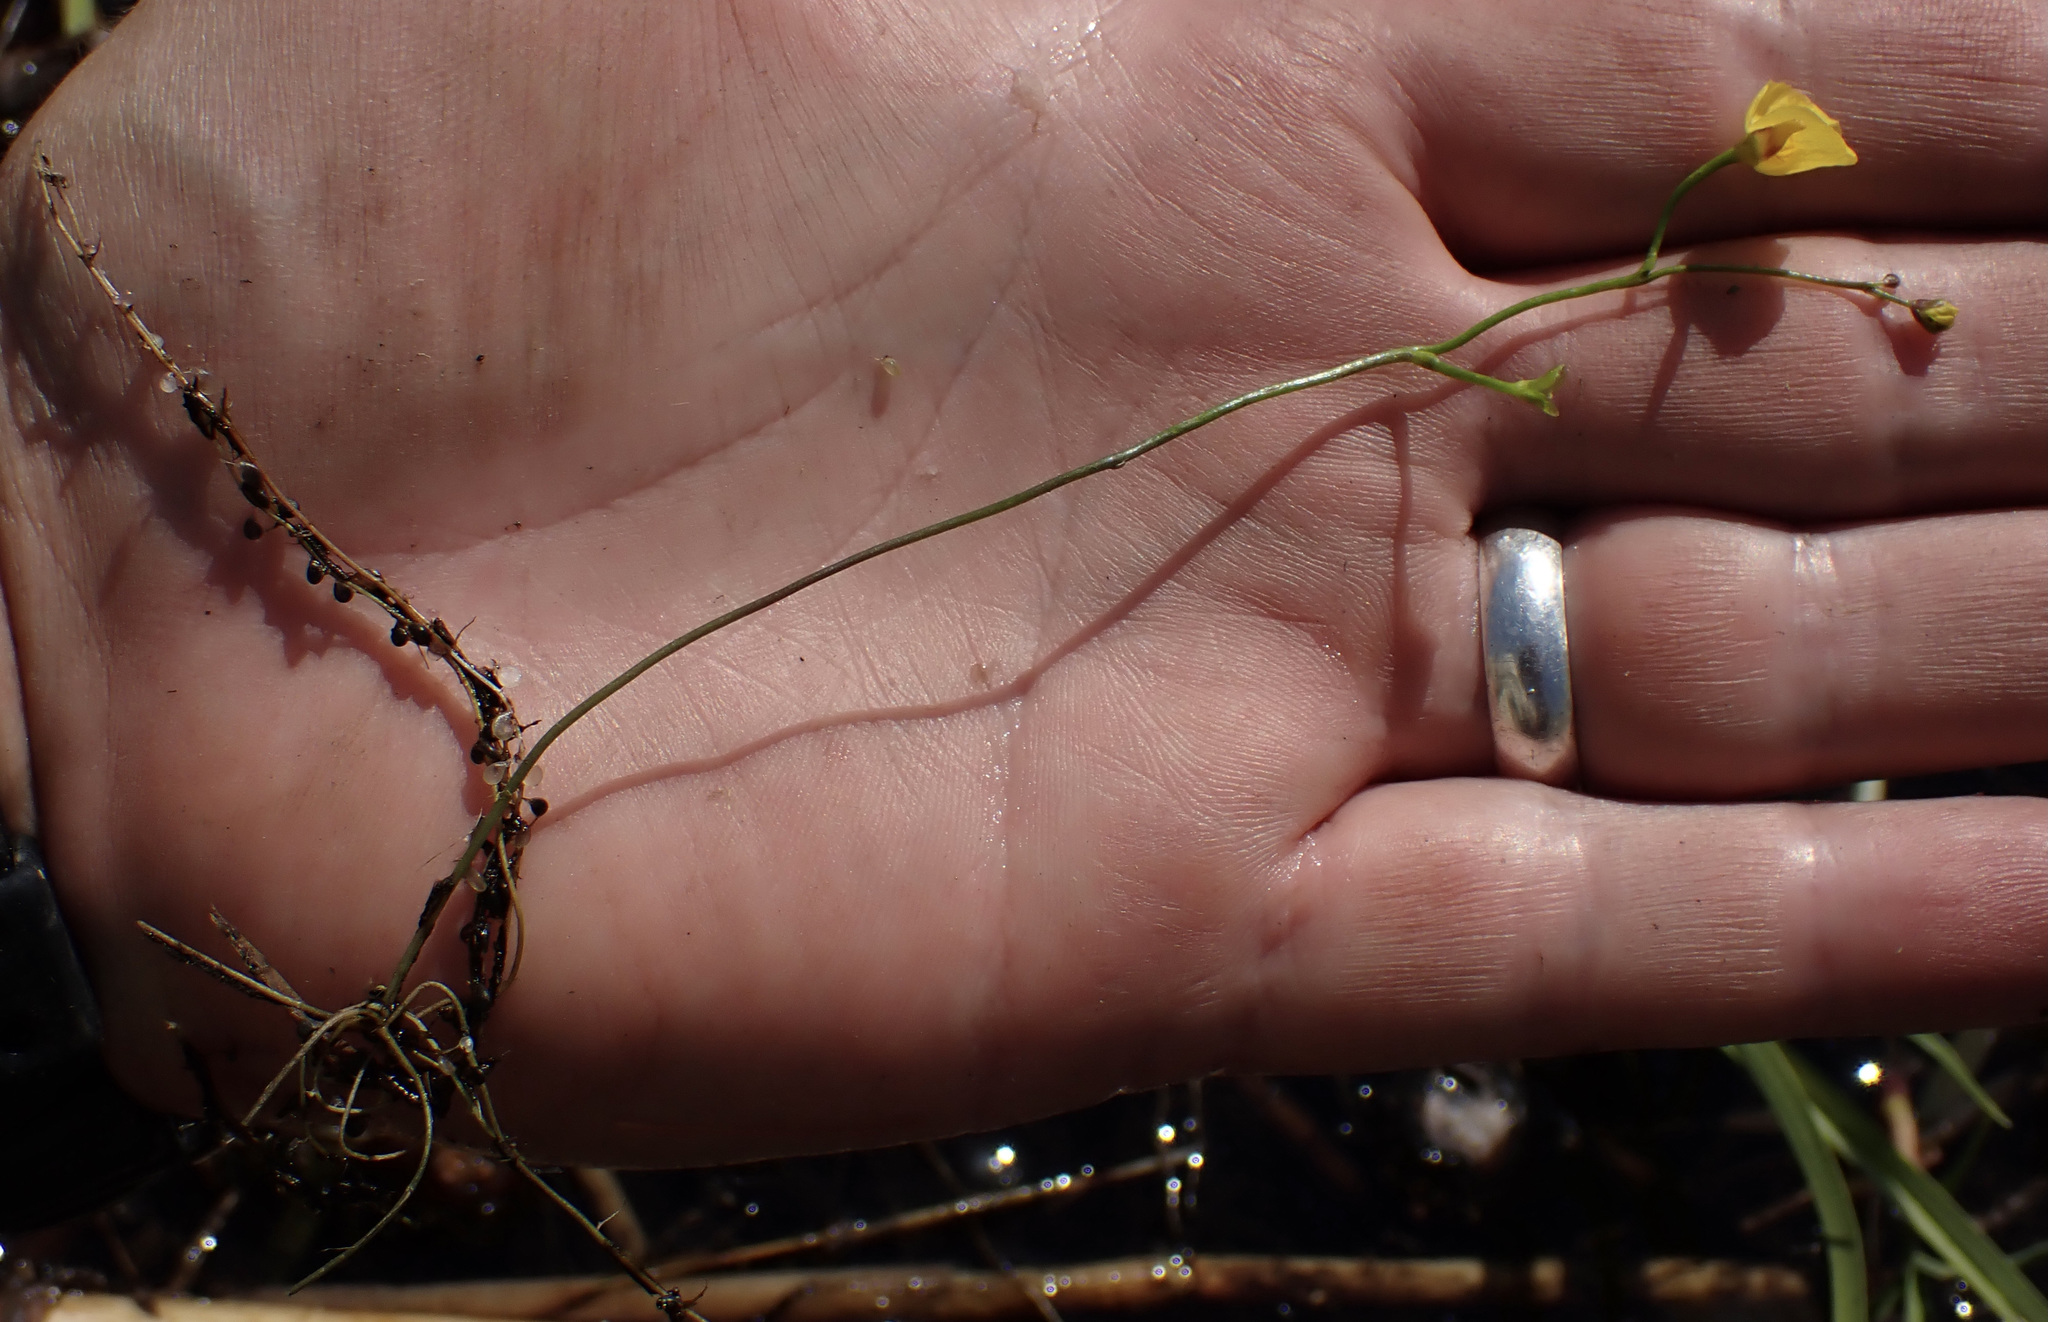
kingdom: Plantae
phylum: Tracheophyta
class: Magnoliopsida
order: Lamiales
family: Lentibulariaceae
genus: Utricularia
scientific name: Utricularia gibba
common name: Humped bladderwort
